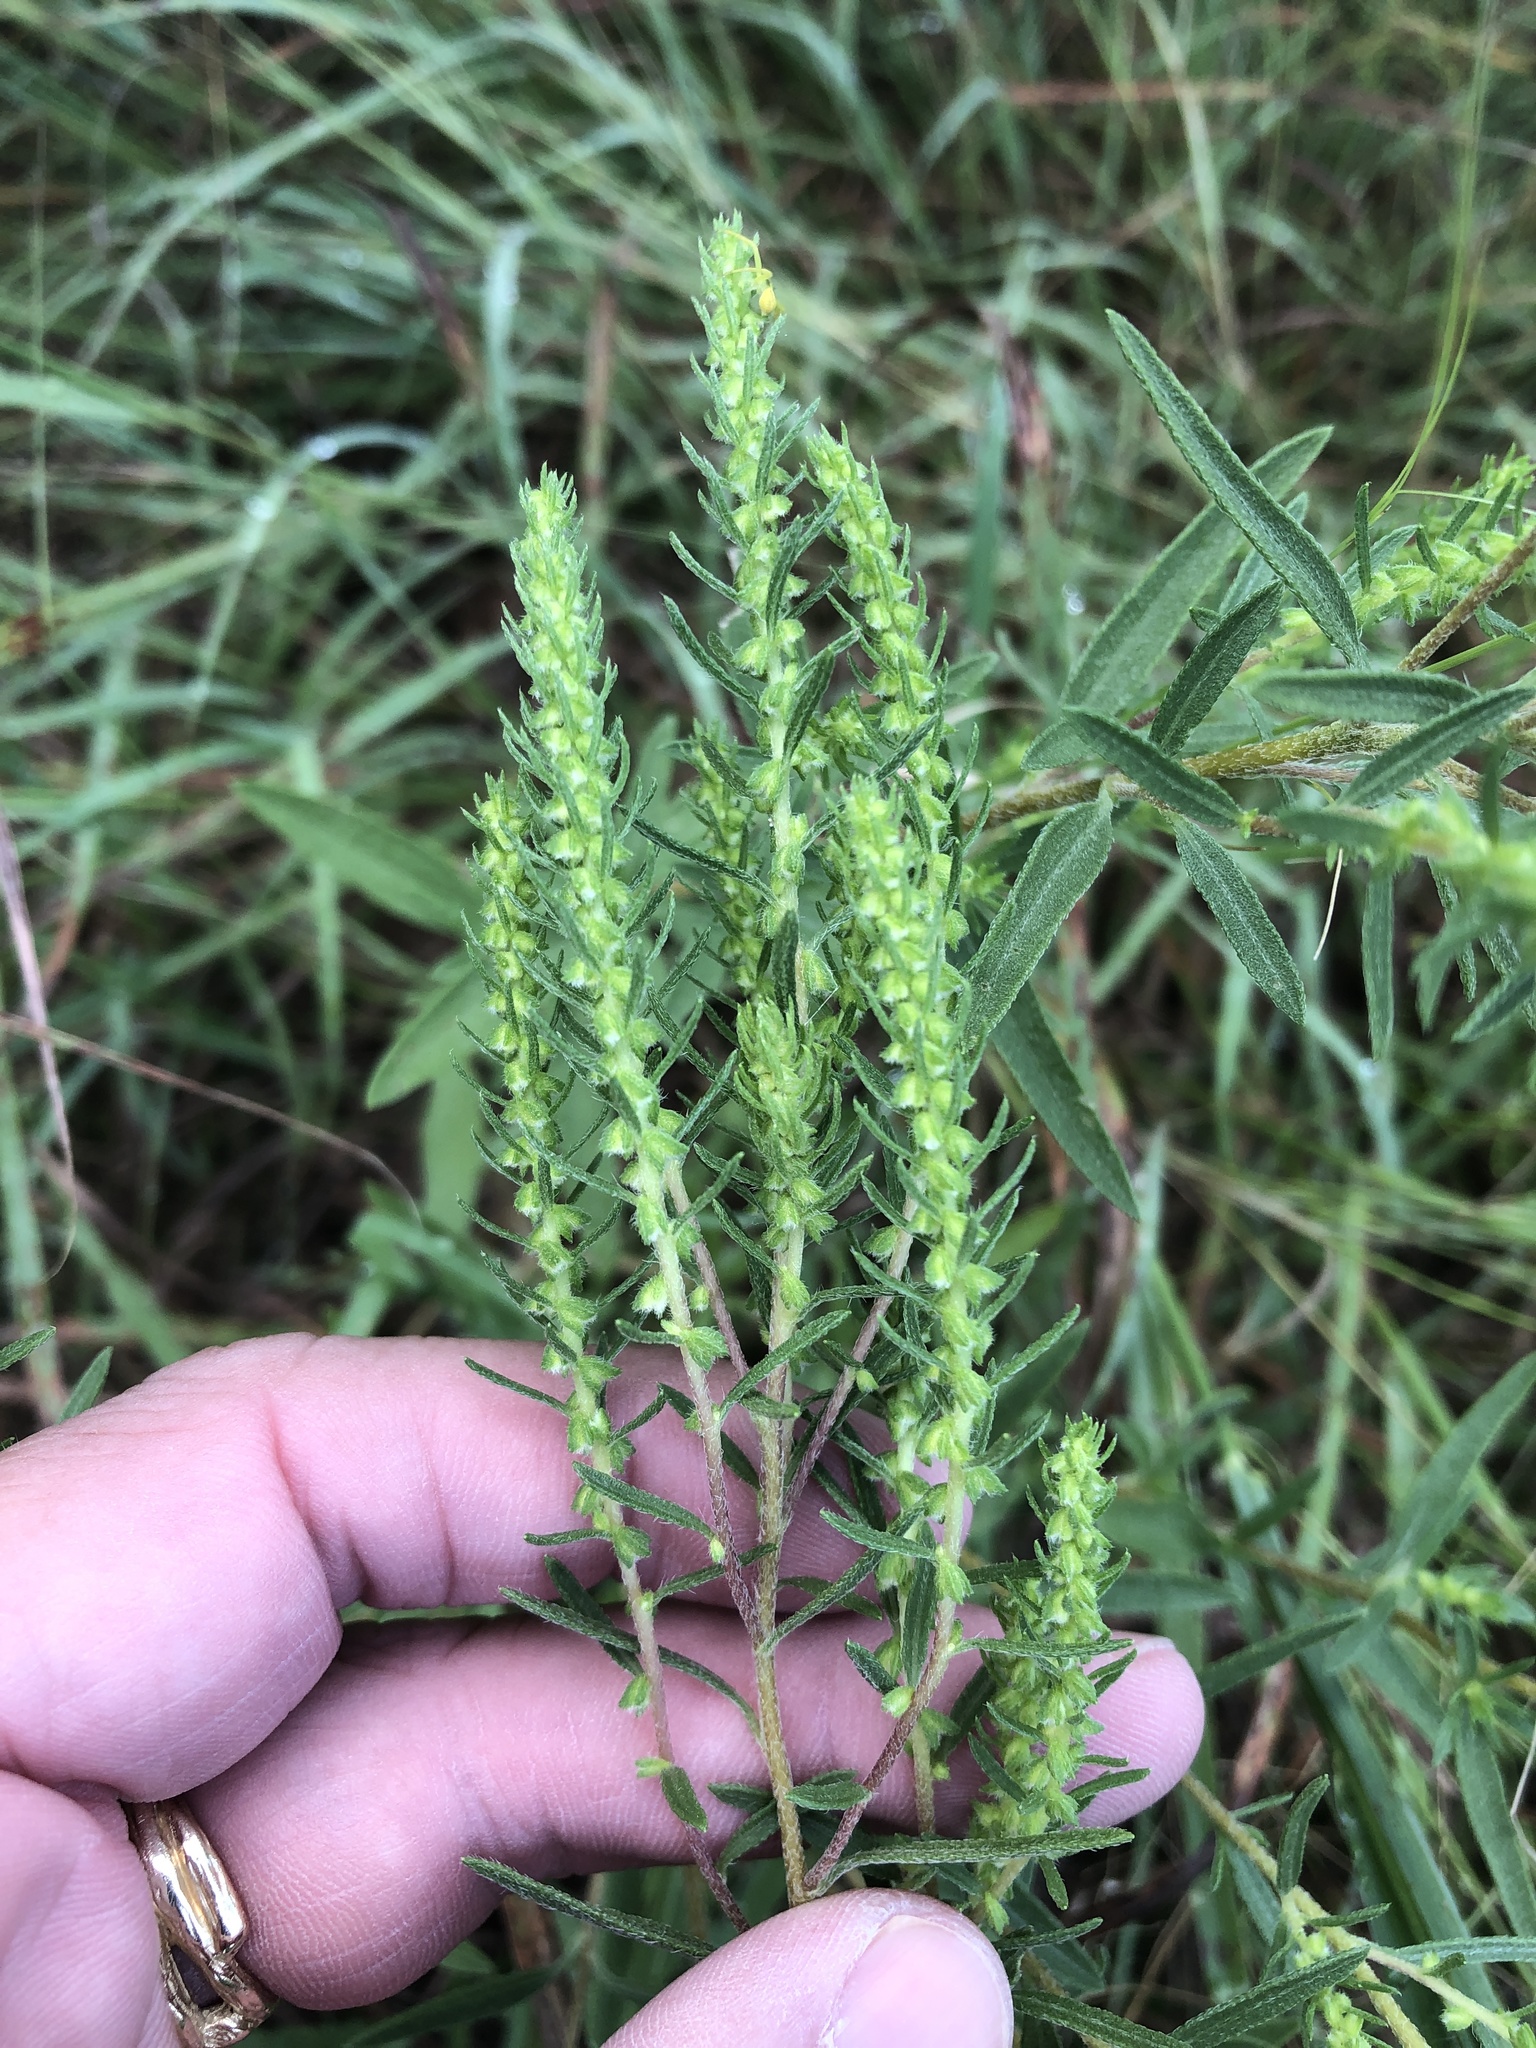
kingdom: Plantae
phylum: Tracheophyta
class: Magnoliopsida
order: Asterales
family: Asteraceae
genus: Iva
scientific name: Iva asperifolia
